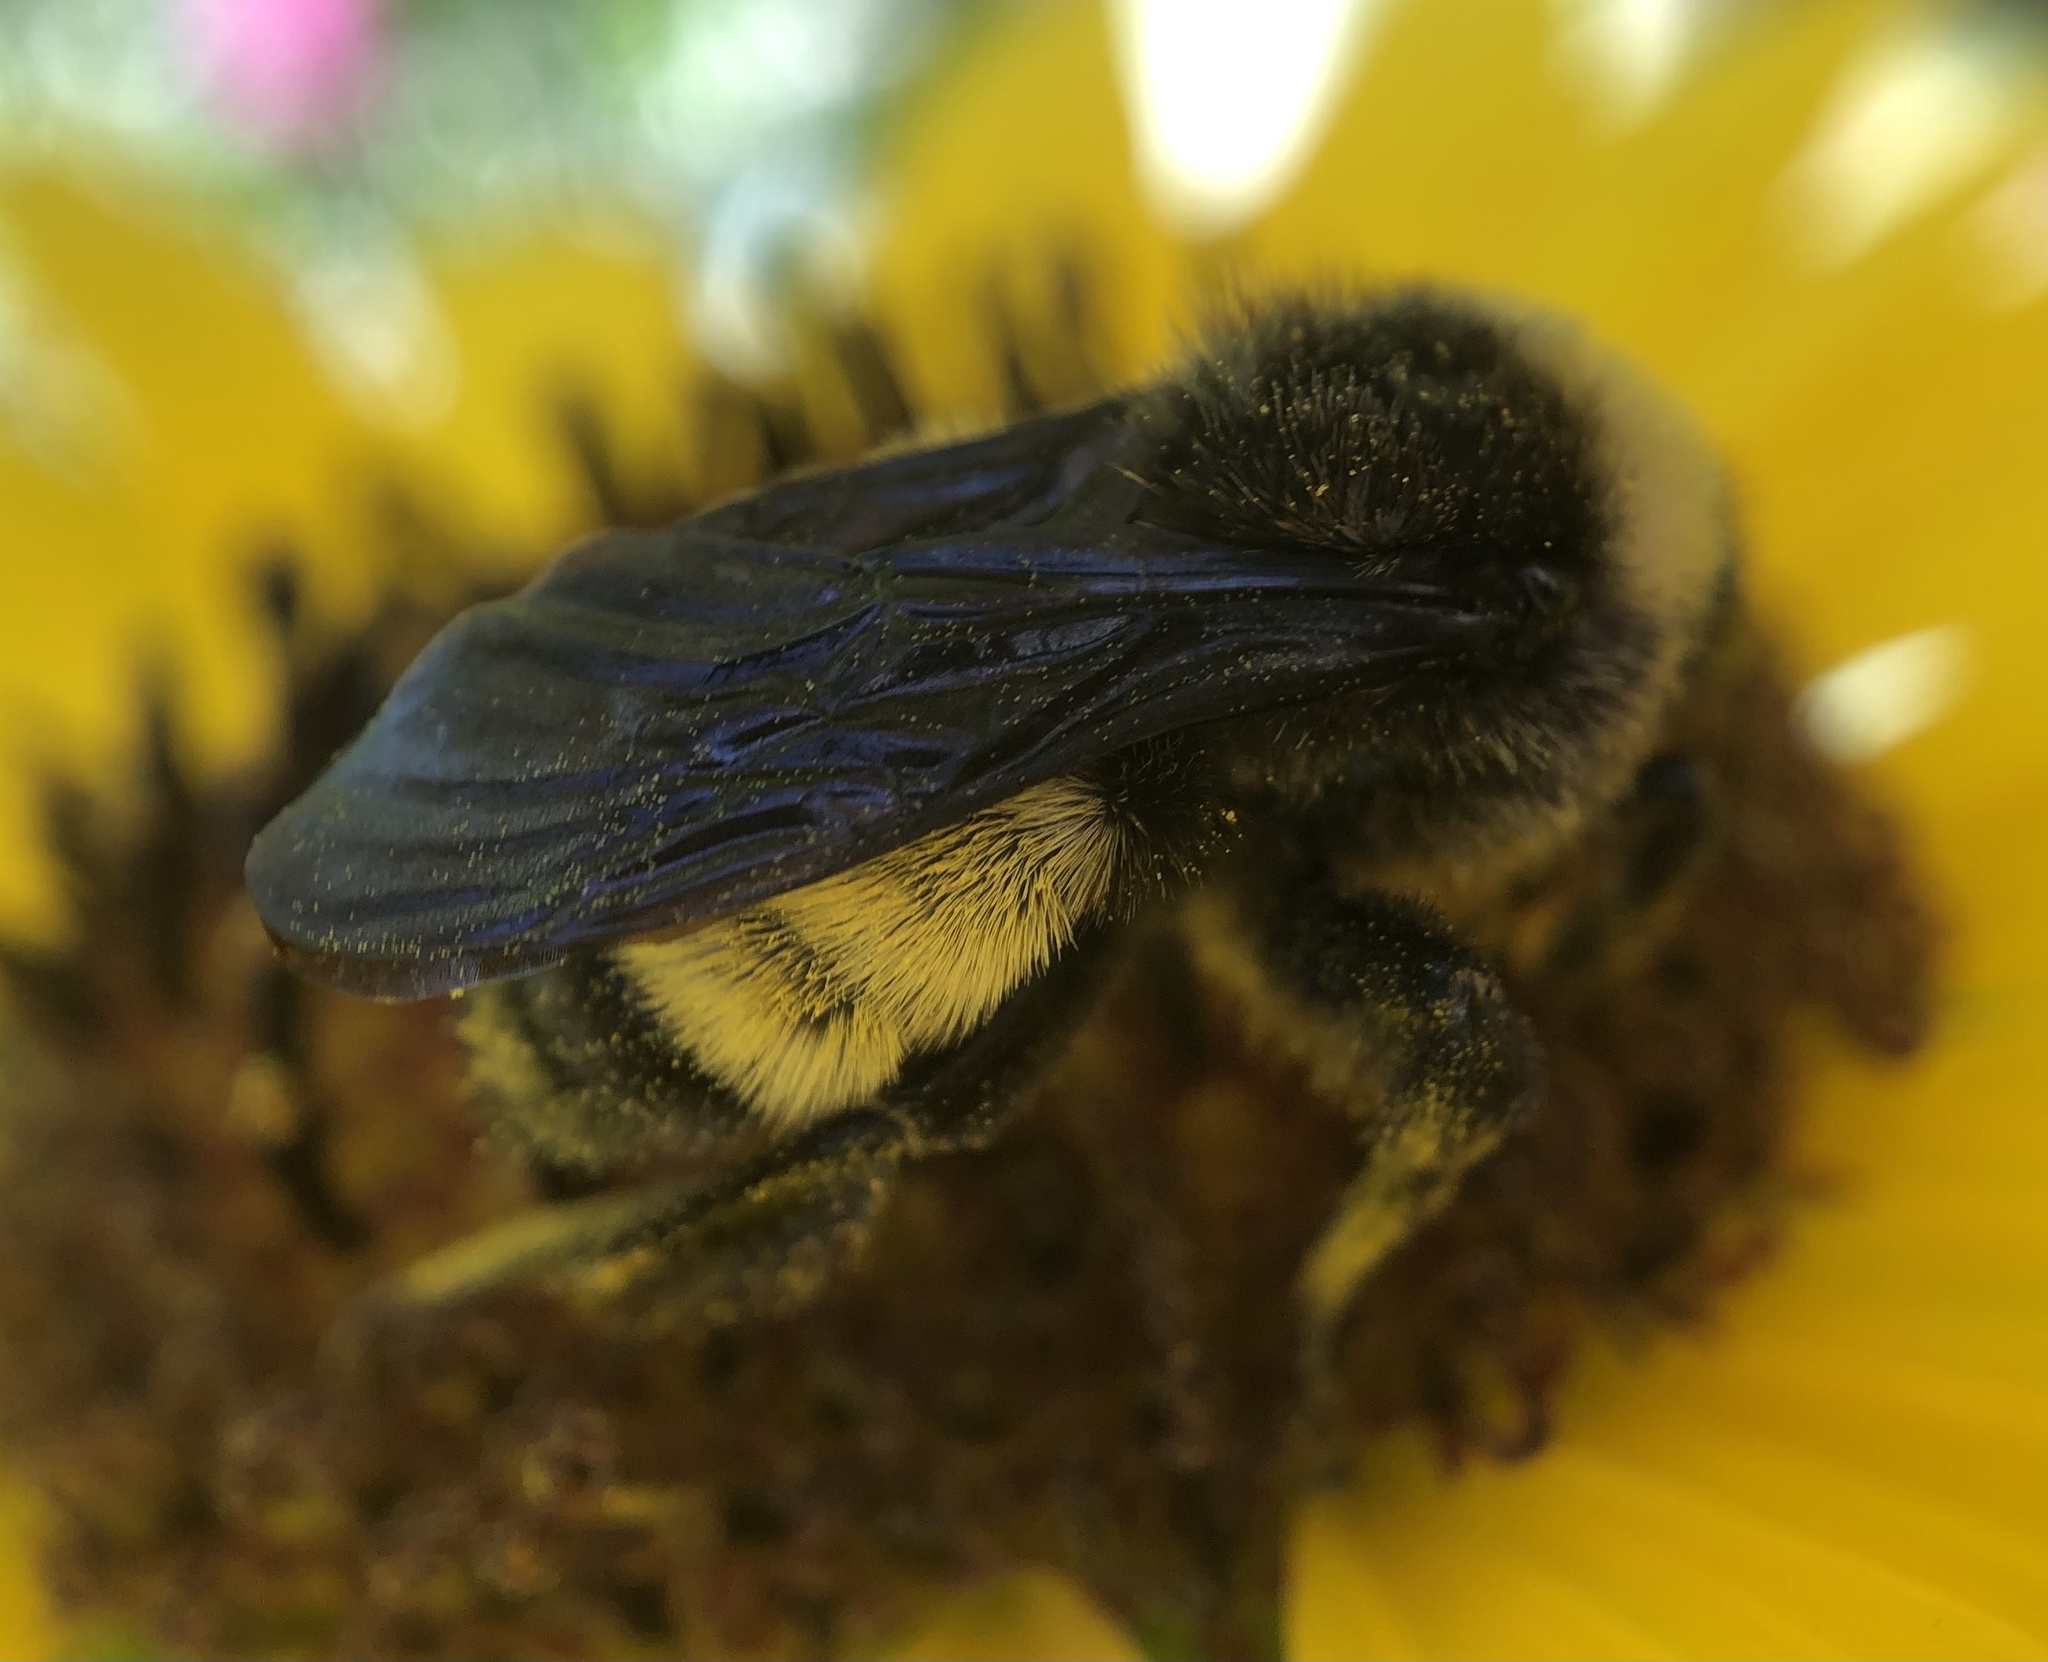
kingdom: Animalia
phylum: Arthropoda
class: Insecta
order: Hymenoptera
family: Apidae
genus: Bombus
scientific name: Bombus pensylvanicus
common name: Bumble bee
